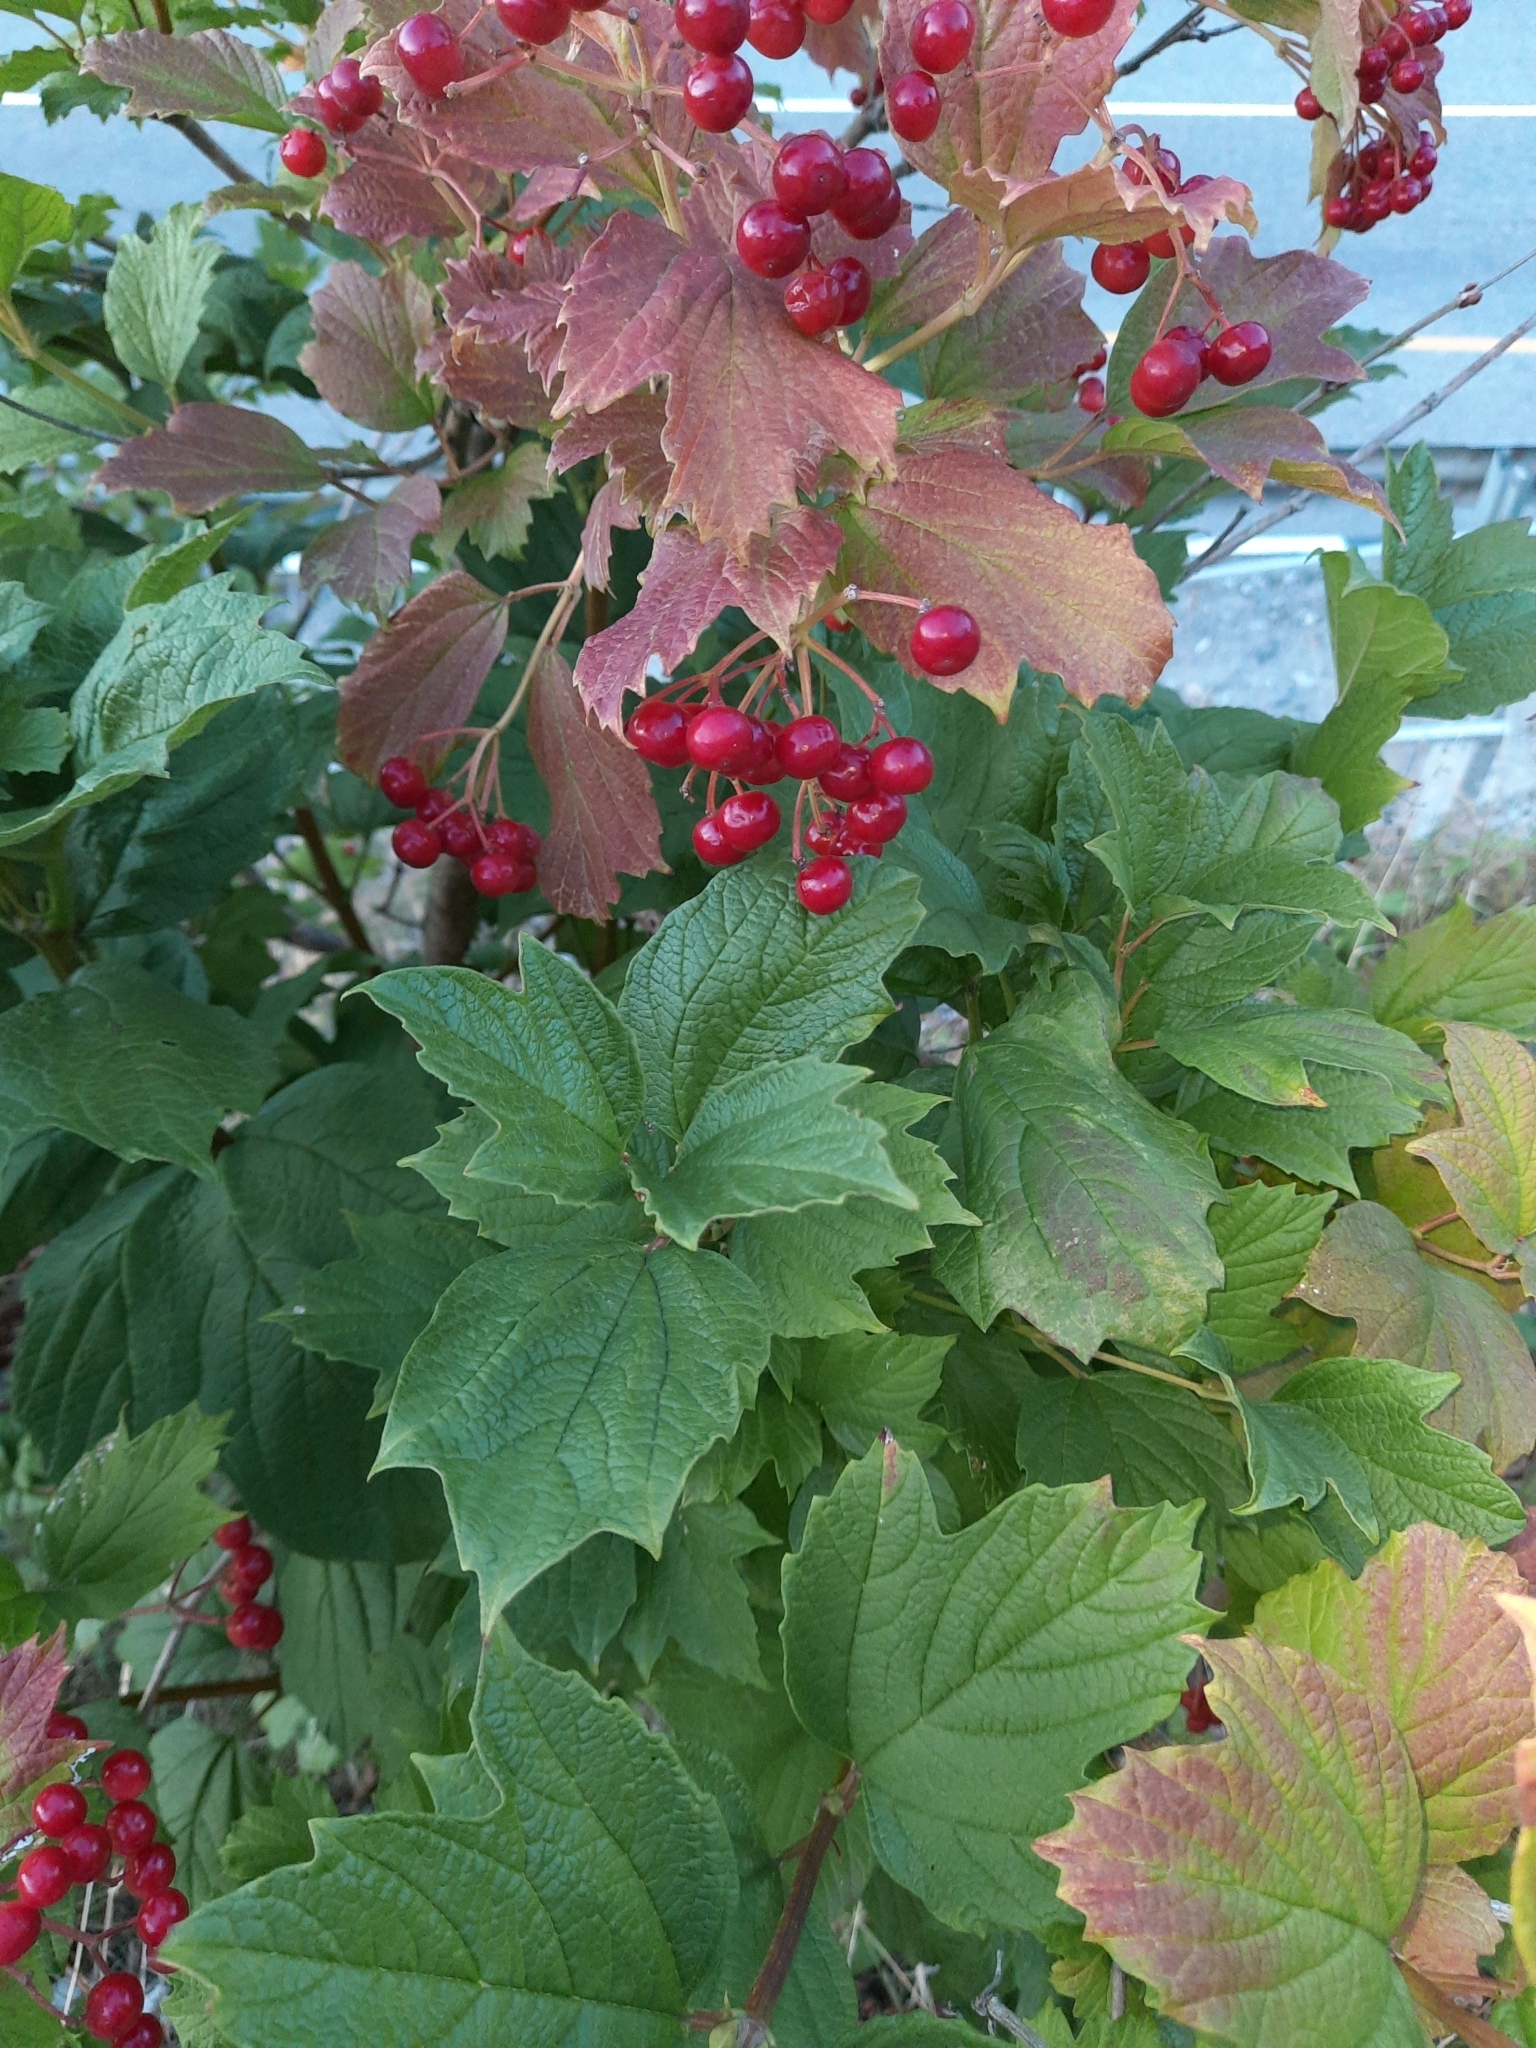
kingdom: Plantae
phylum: Tracheophyta
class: Magnoliopsida
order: Dipsacales
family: Viburnaceae
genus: Viburnum
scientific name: Viburnum opulus
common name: Guelder-rose
